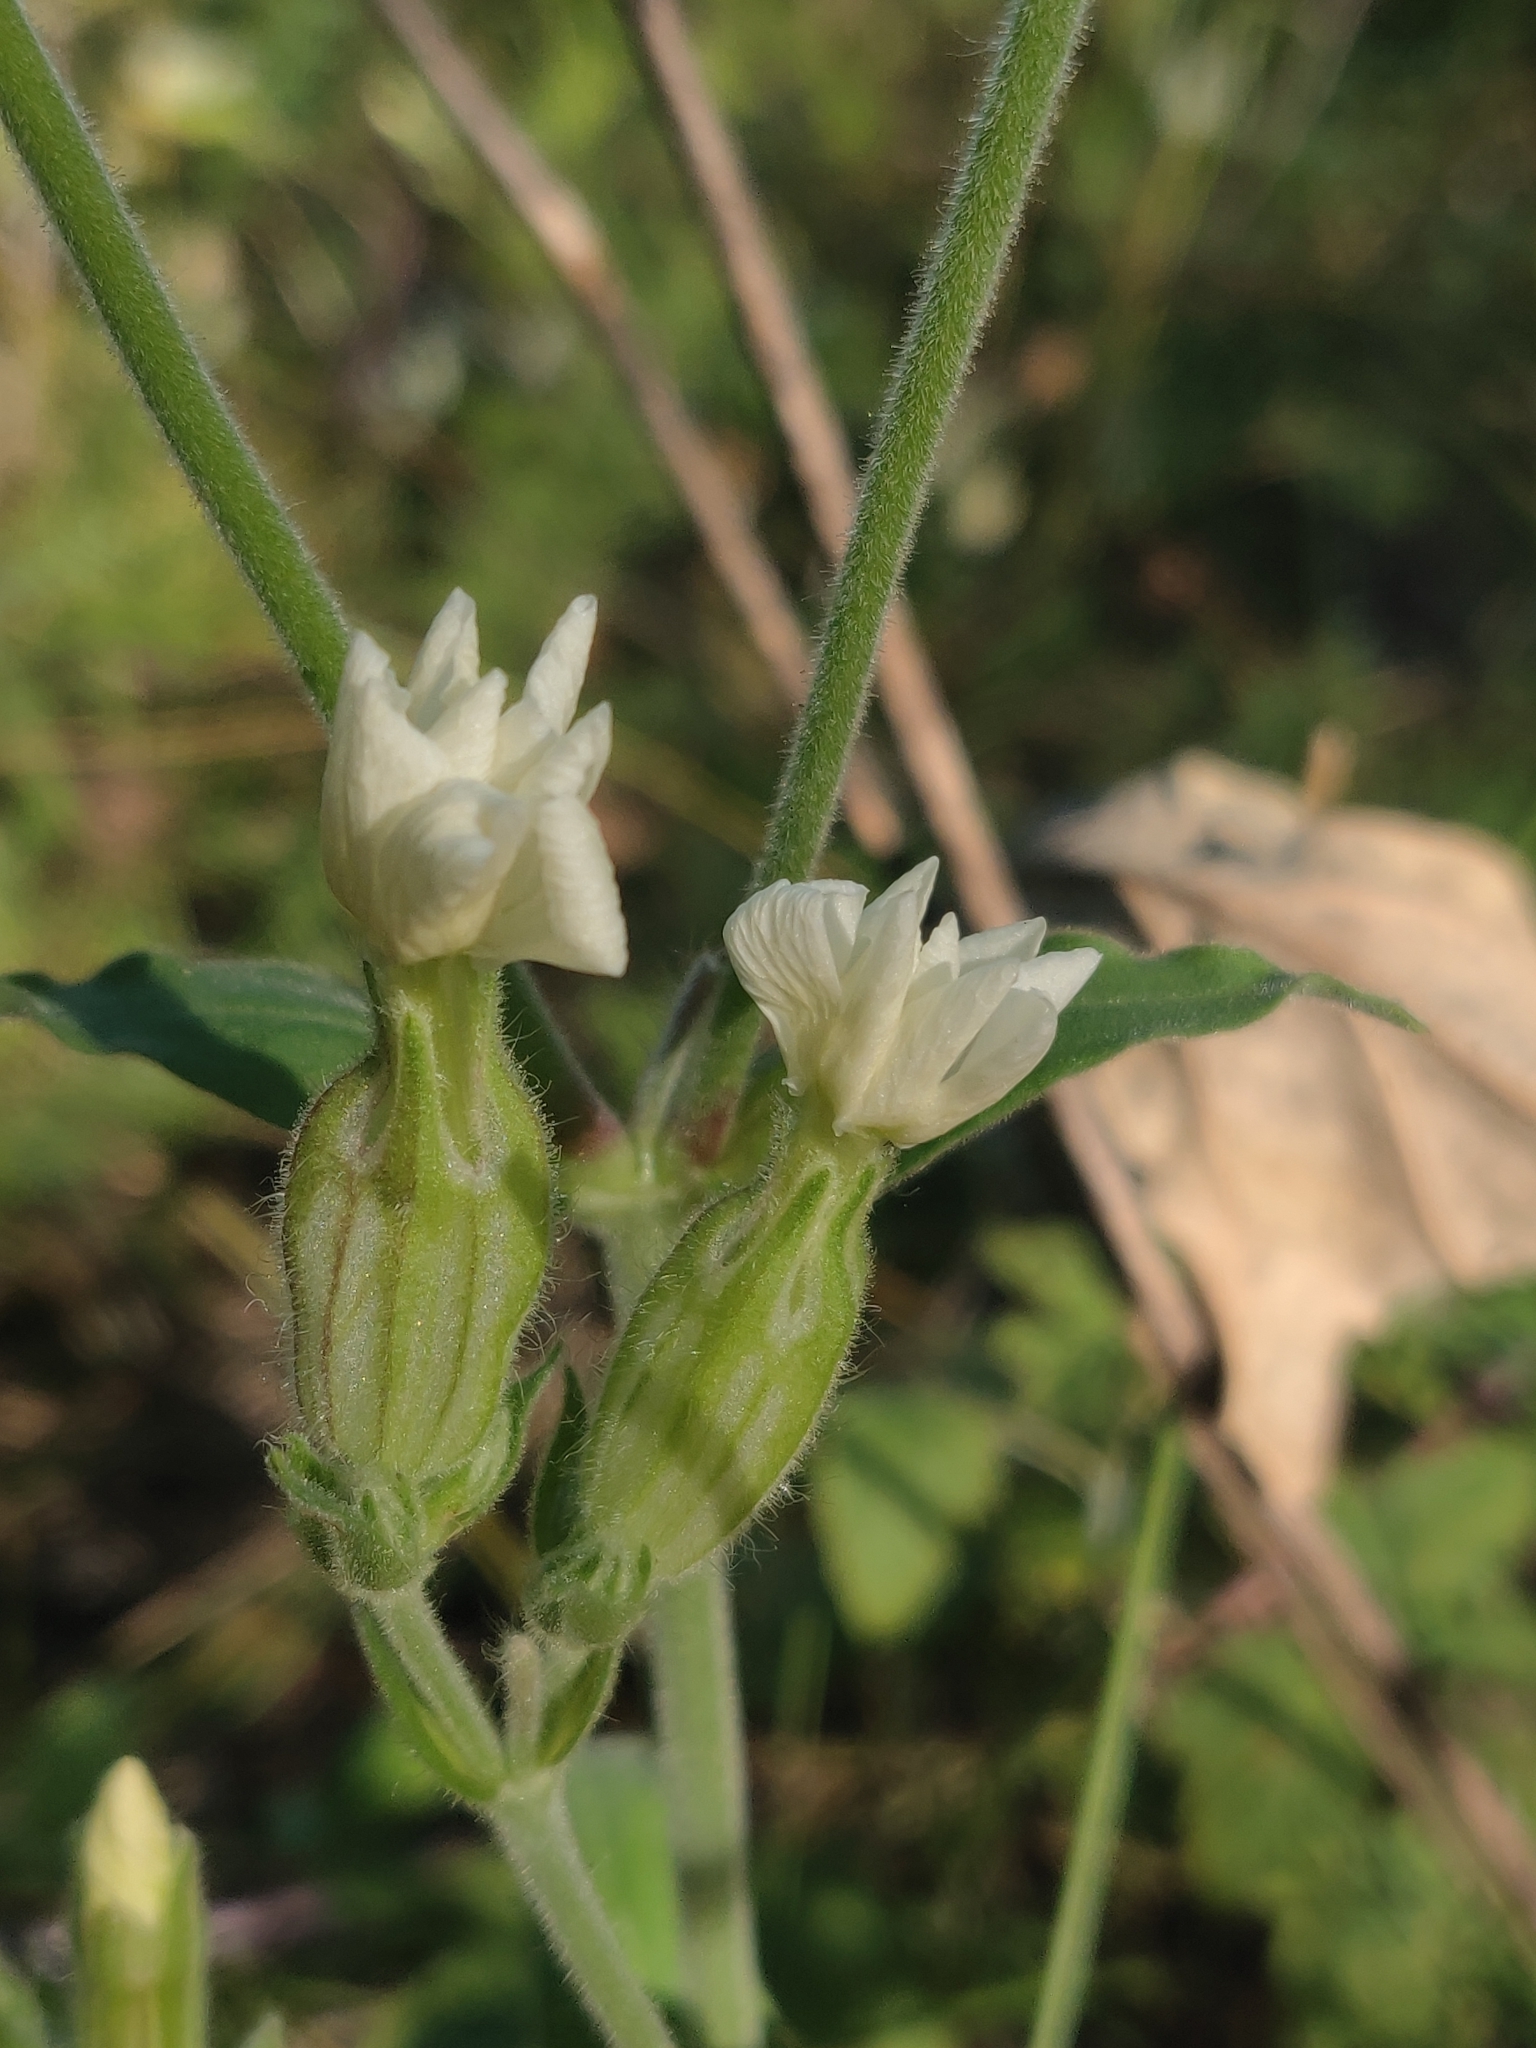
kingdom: Plantae
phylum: Tracheophyta
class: Magnoliopsida
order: Caryophyllales
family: Caryophyllaceae
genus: Silene
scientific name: Silene latifolia
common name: White campion
